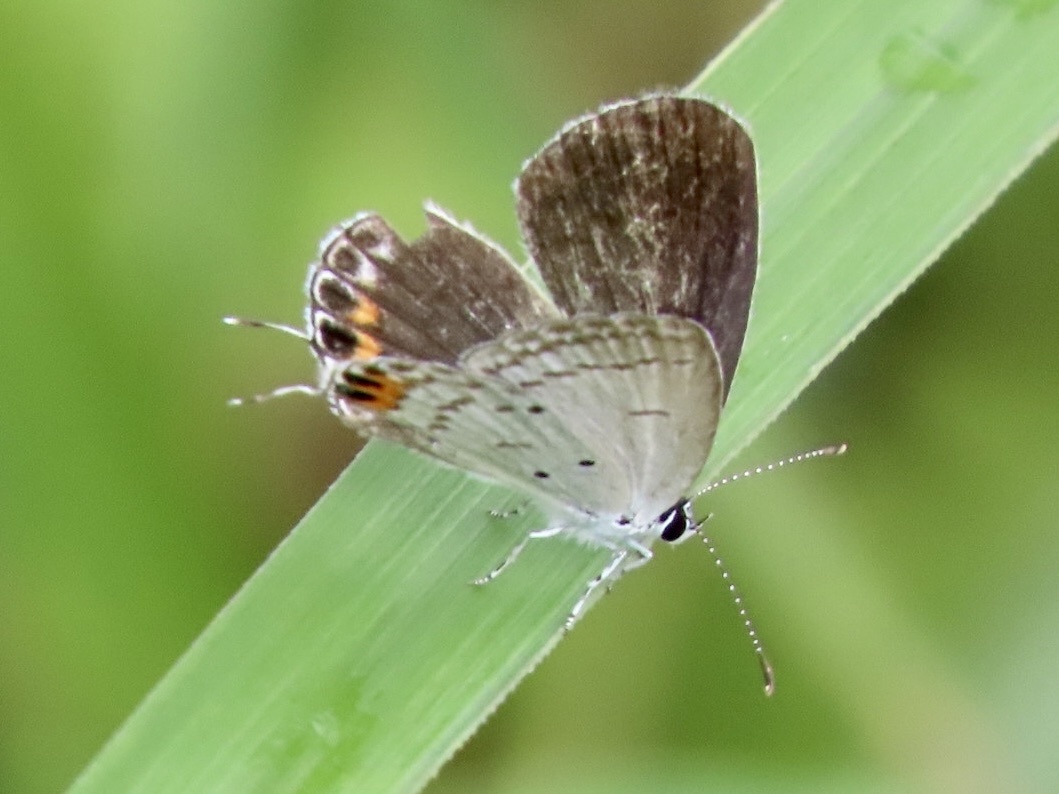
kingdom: Animalia
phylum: Arthropoda
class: Insecta
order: Lepidoptera
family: Lycaenidae
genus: Everes
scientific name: Everes lacturnus
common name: Orange-tipped pea-blue
